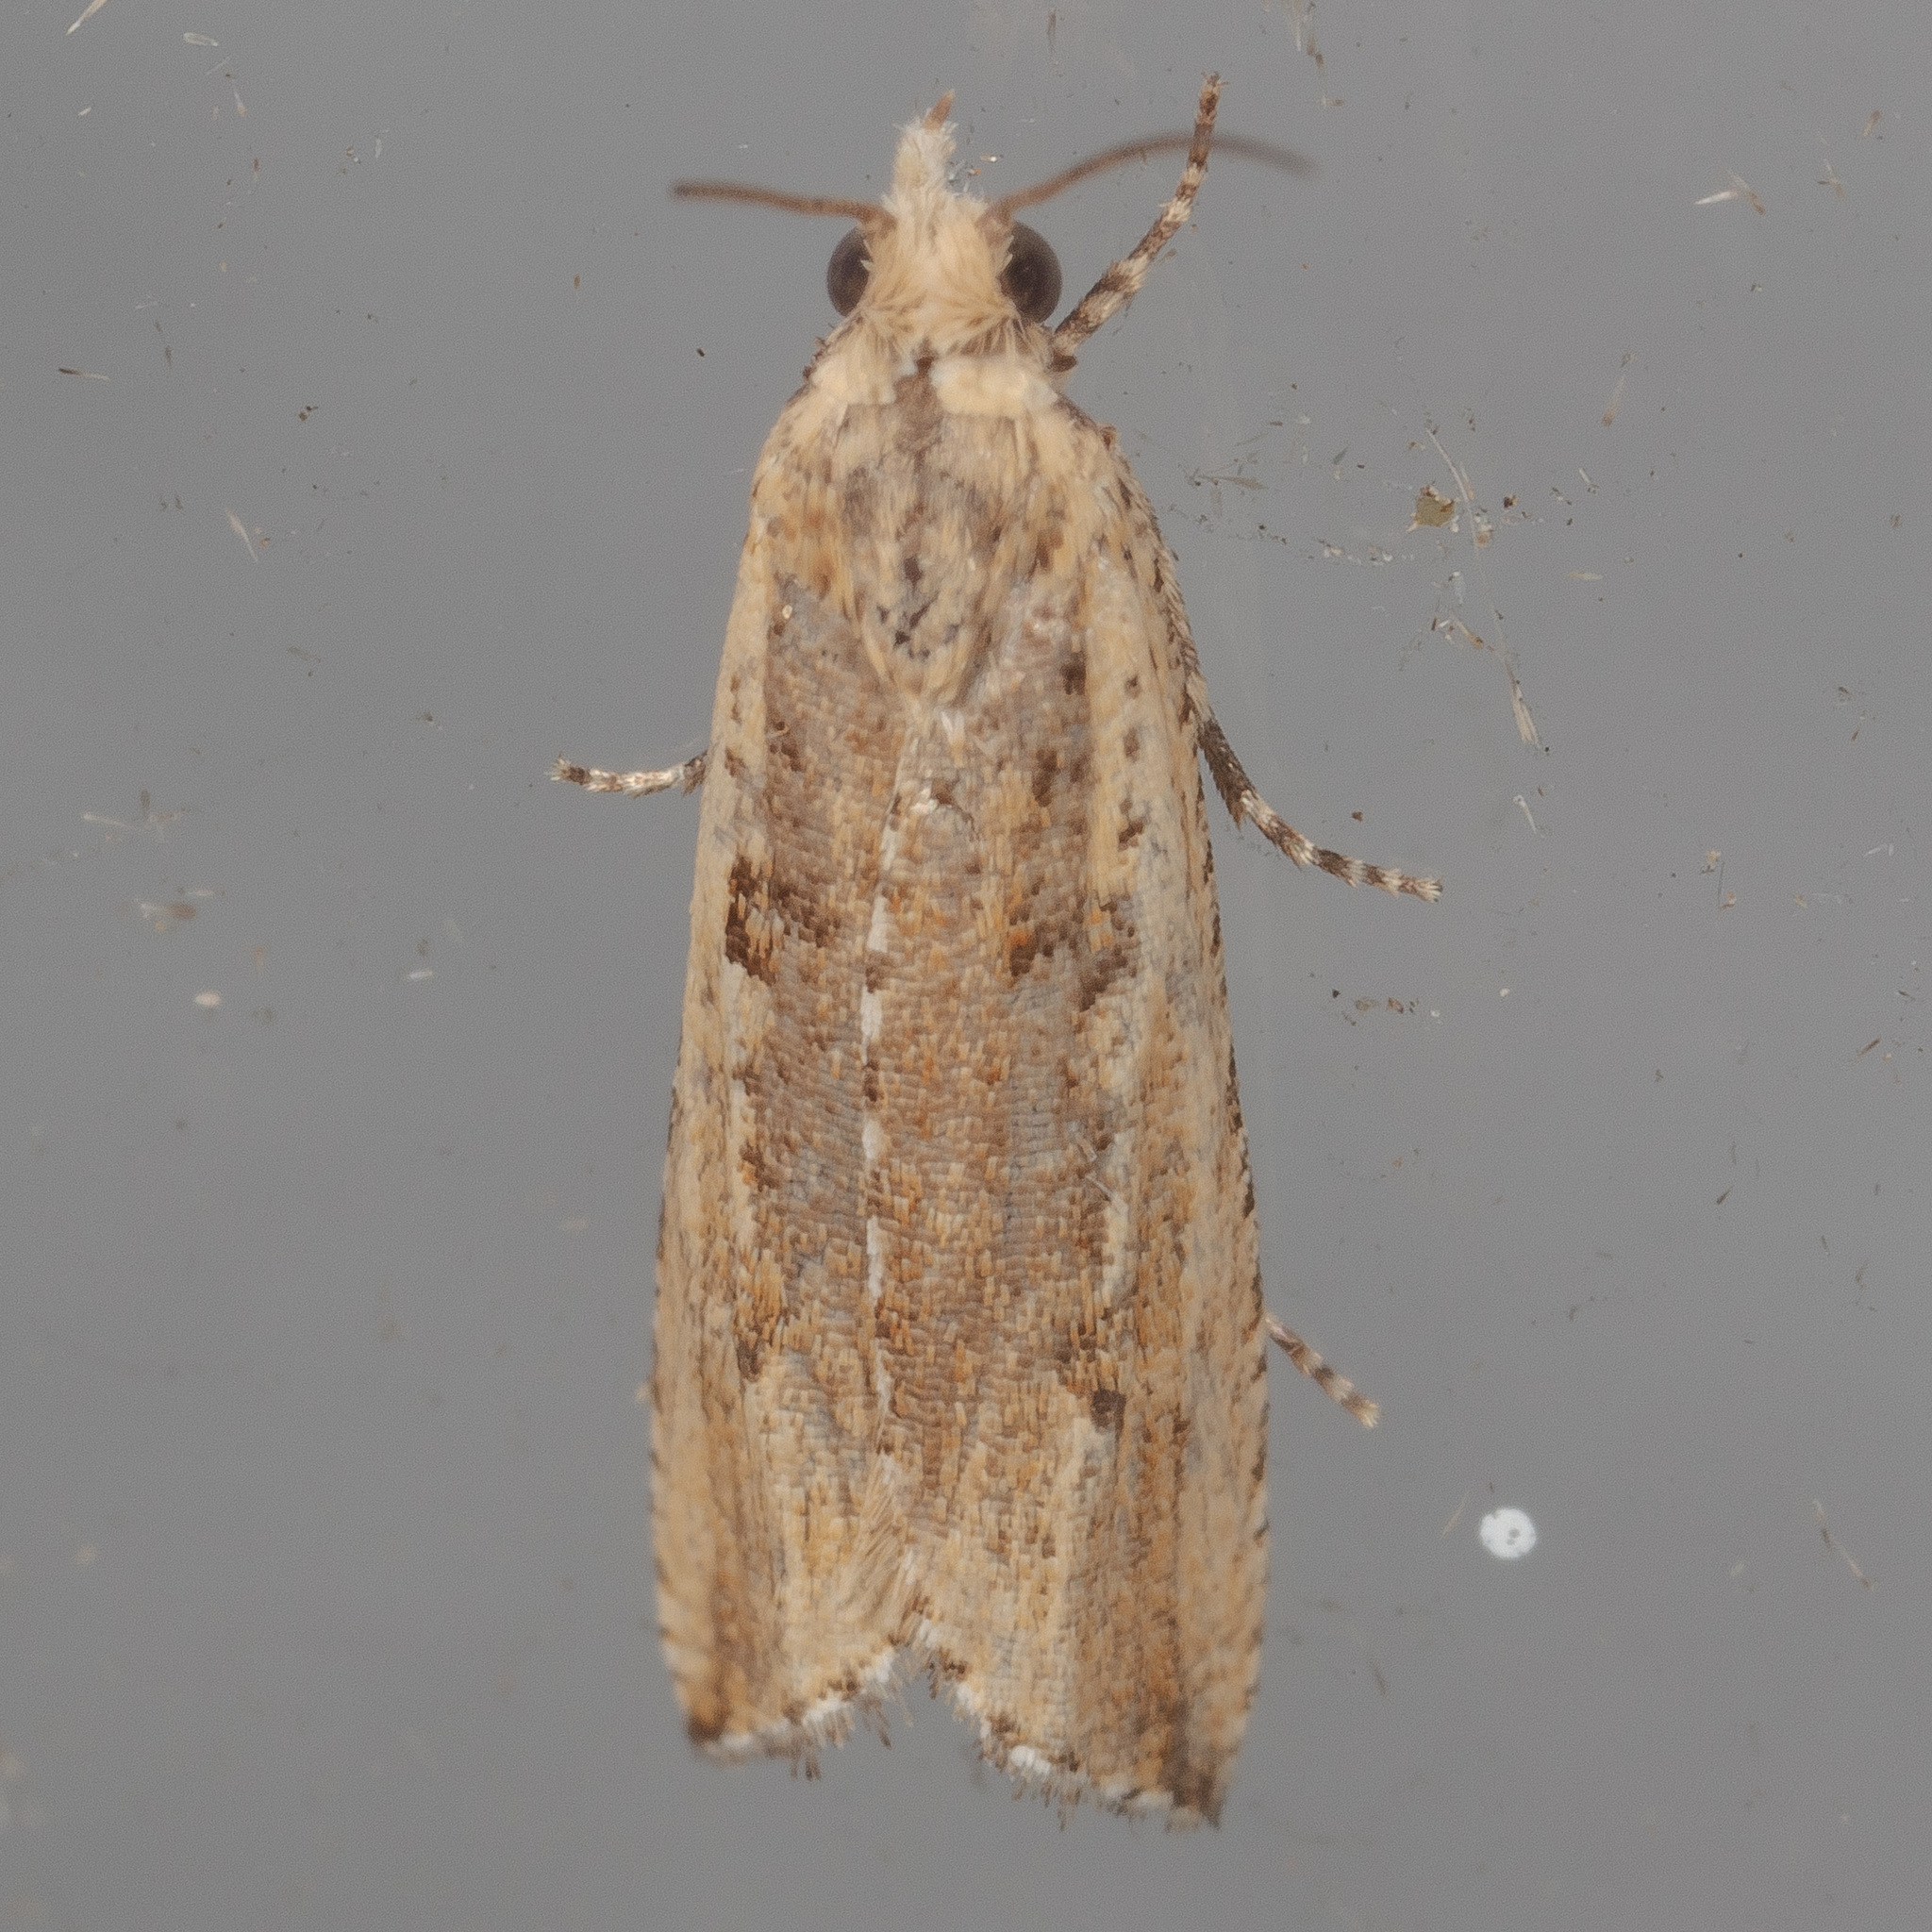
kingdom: Animalia
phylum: Arthropoda
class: Insecta
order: Lepidoptera
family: Tortricidae
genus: Bactra
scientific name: Bactra verutana
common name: Javelin moth
